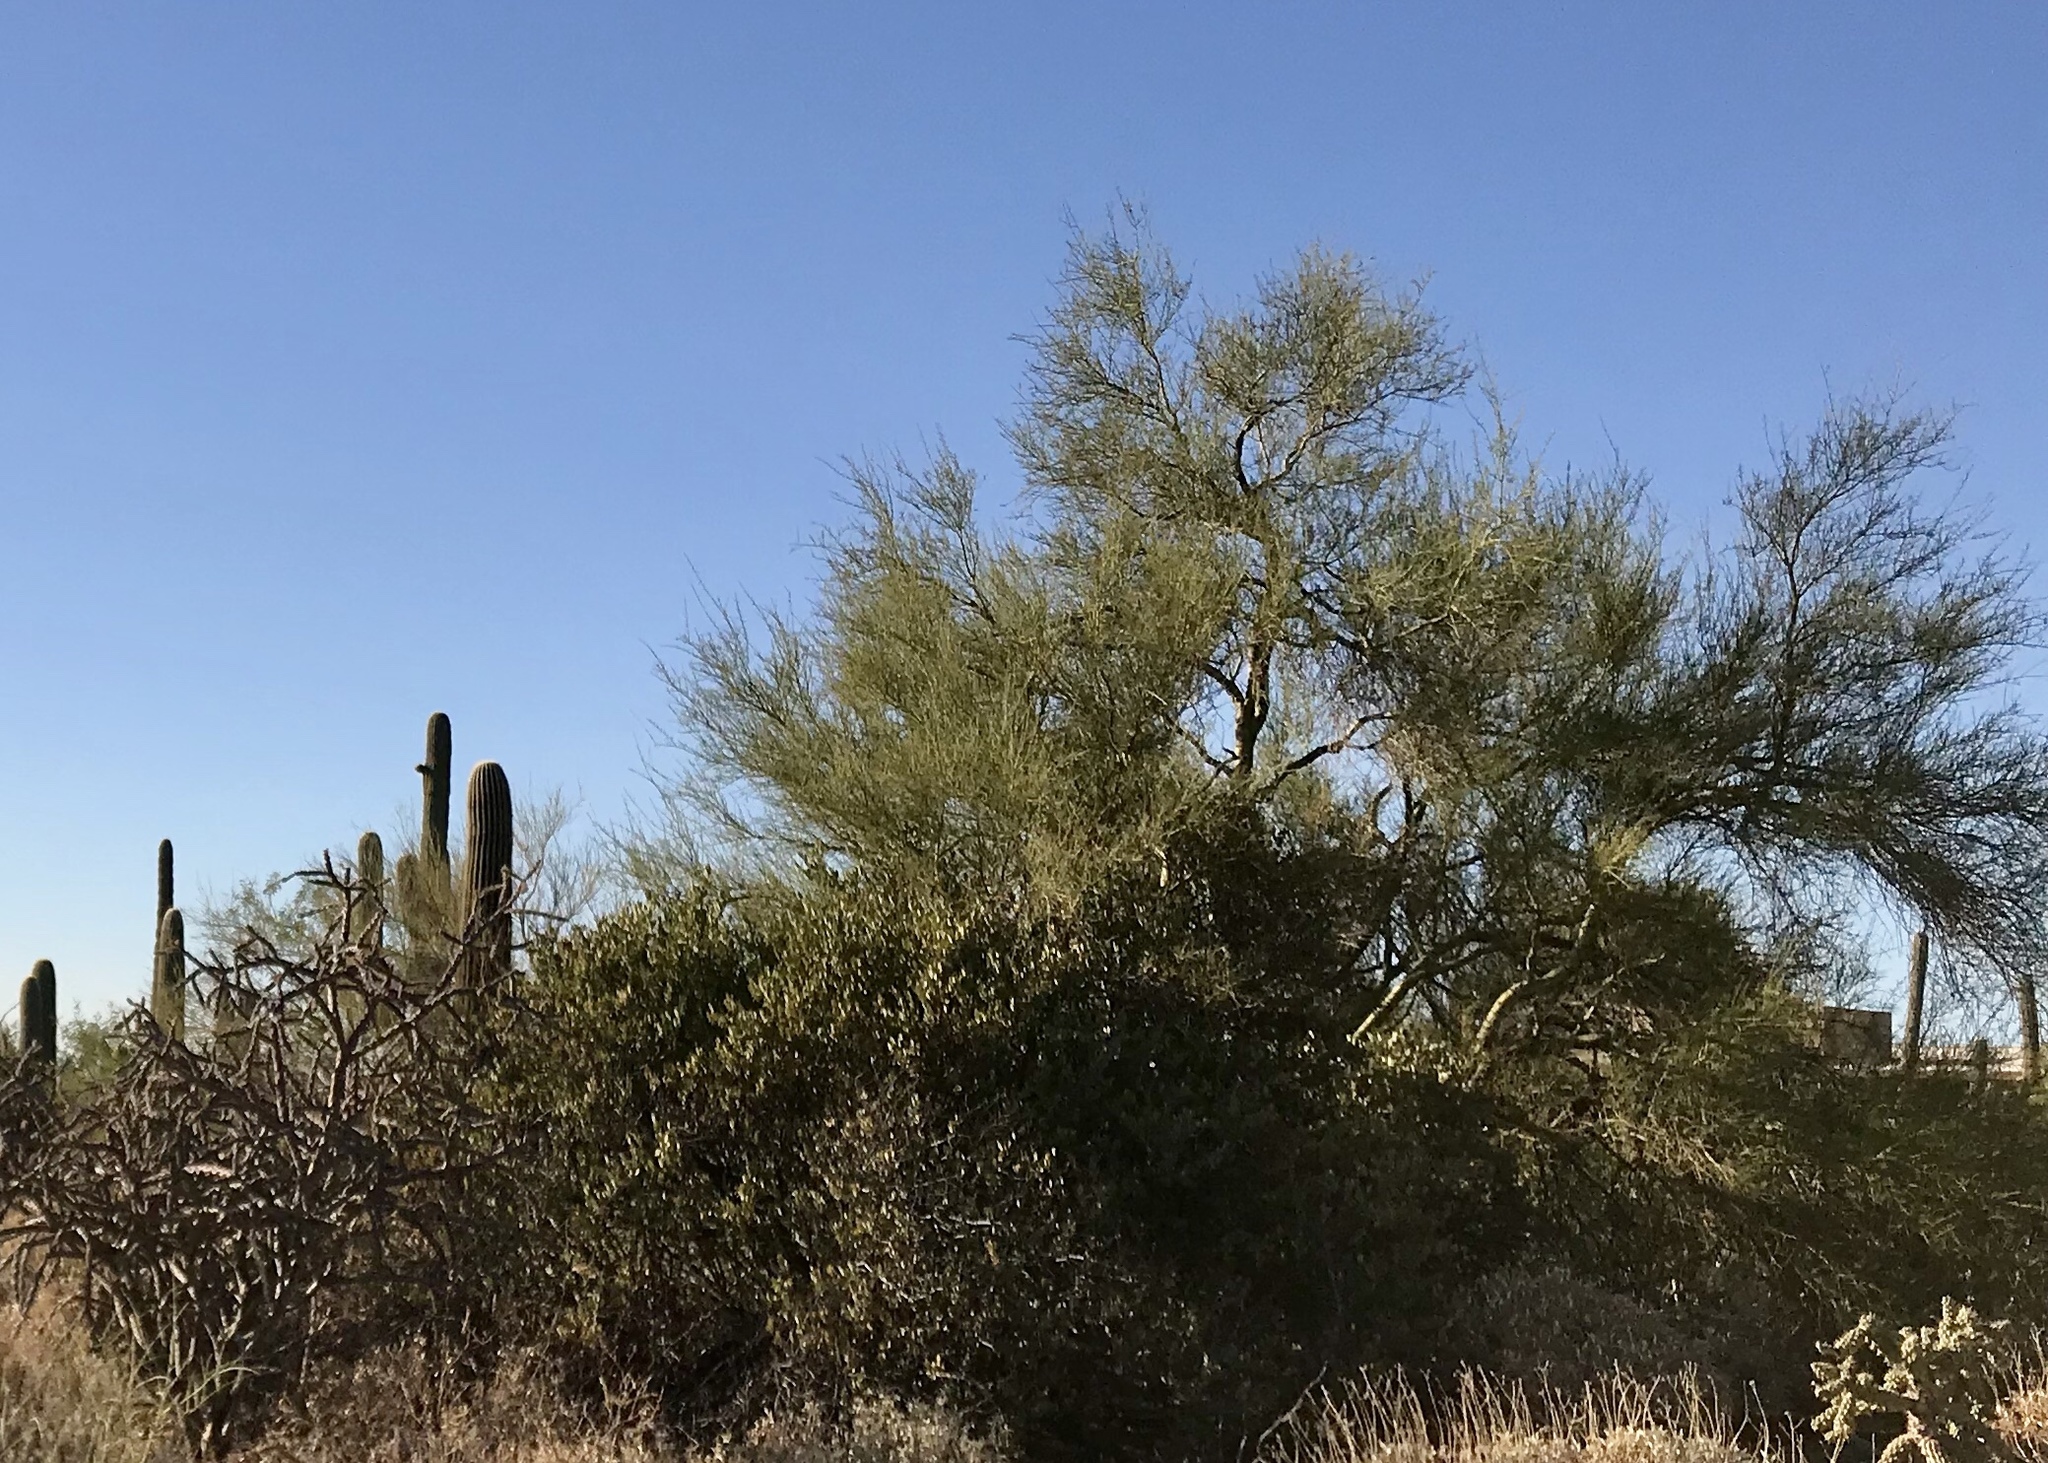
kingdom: Plantae
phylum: Tracheophyta
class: Magnoliopsida
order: Fabales
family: Fabaceae
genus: Parkinsonia
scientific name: Parkinsonia microphylla
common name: Yellow paloverde
